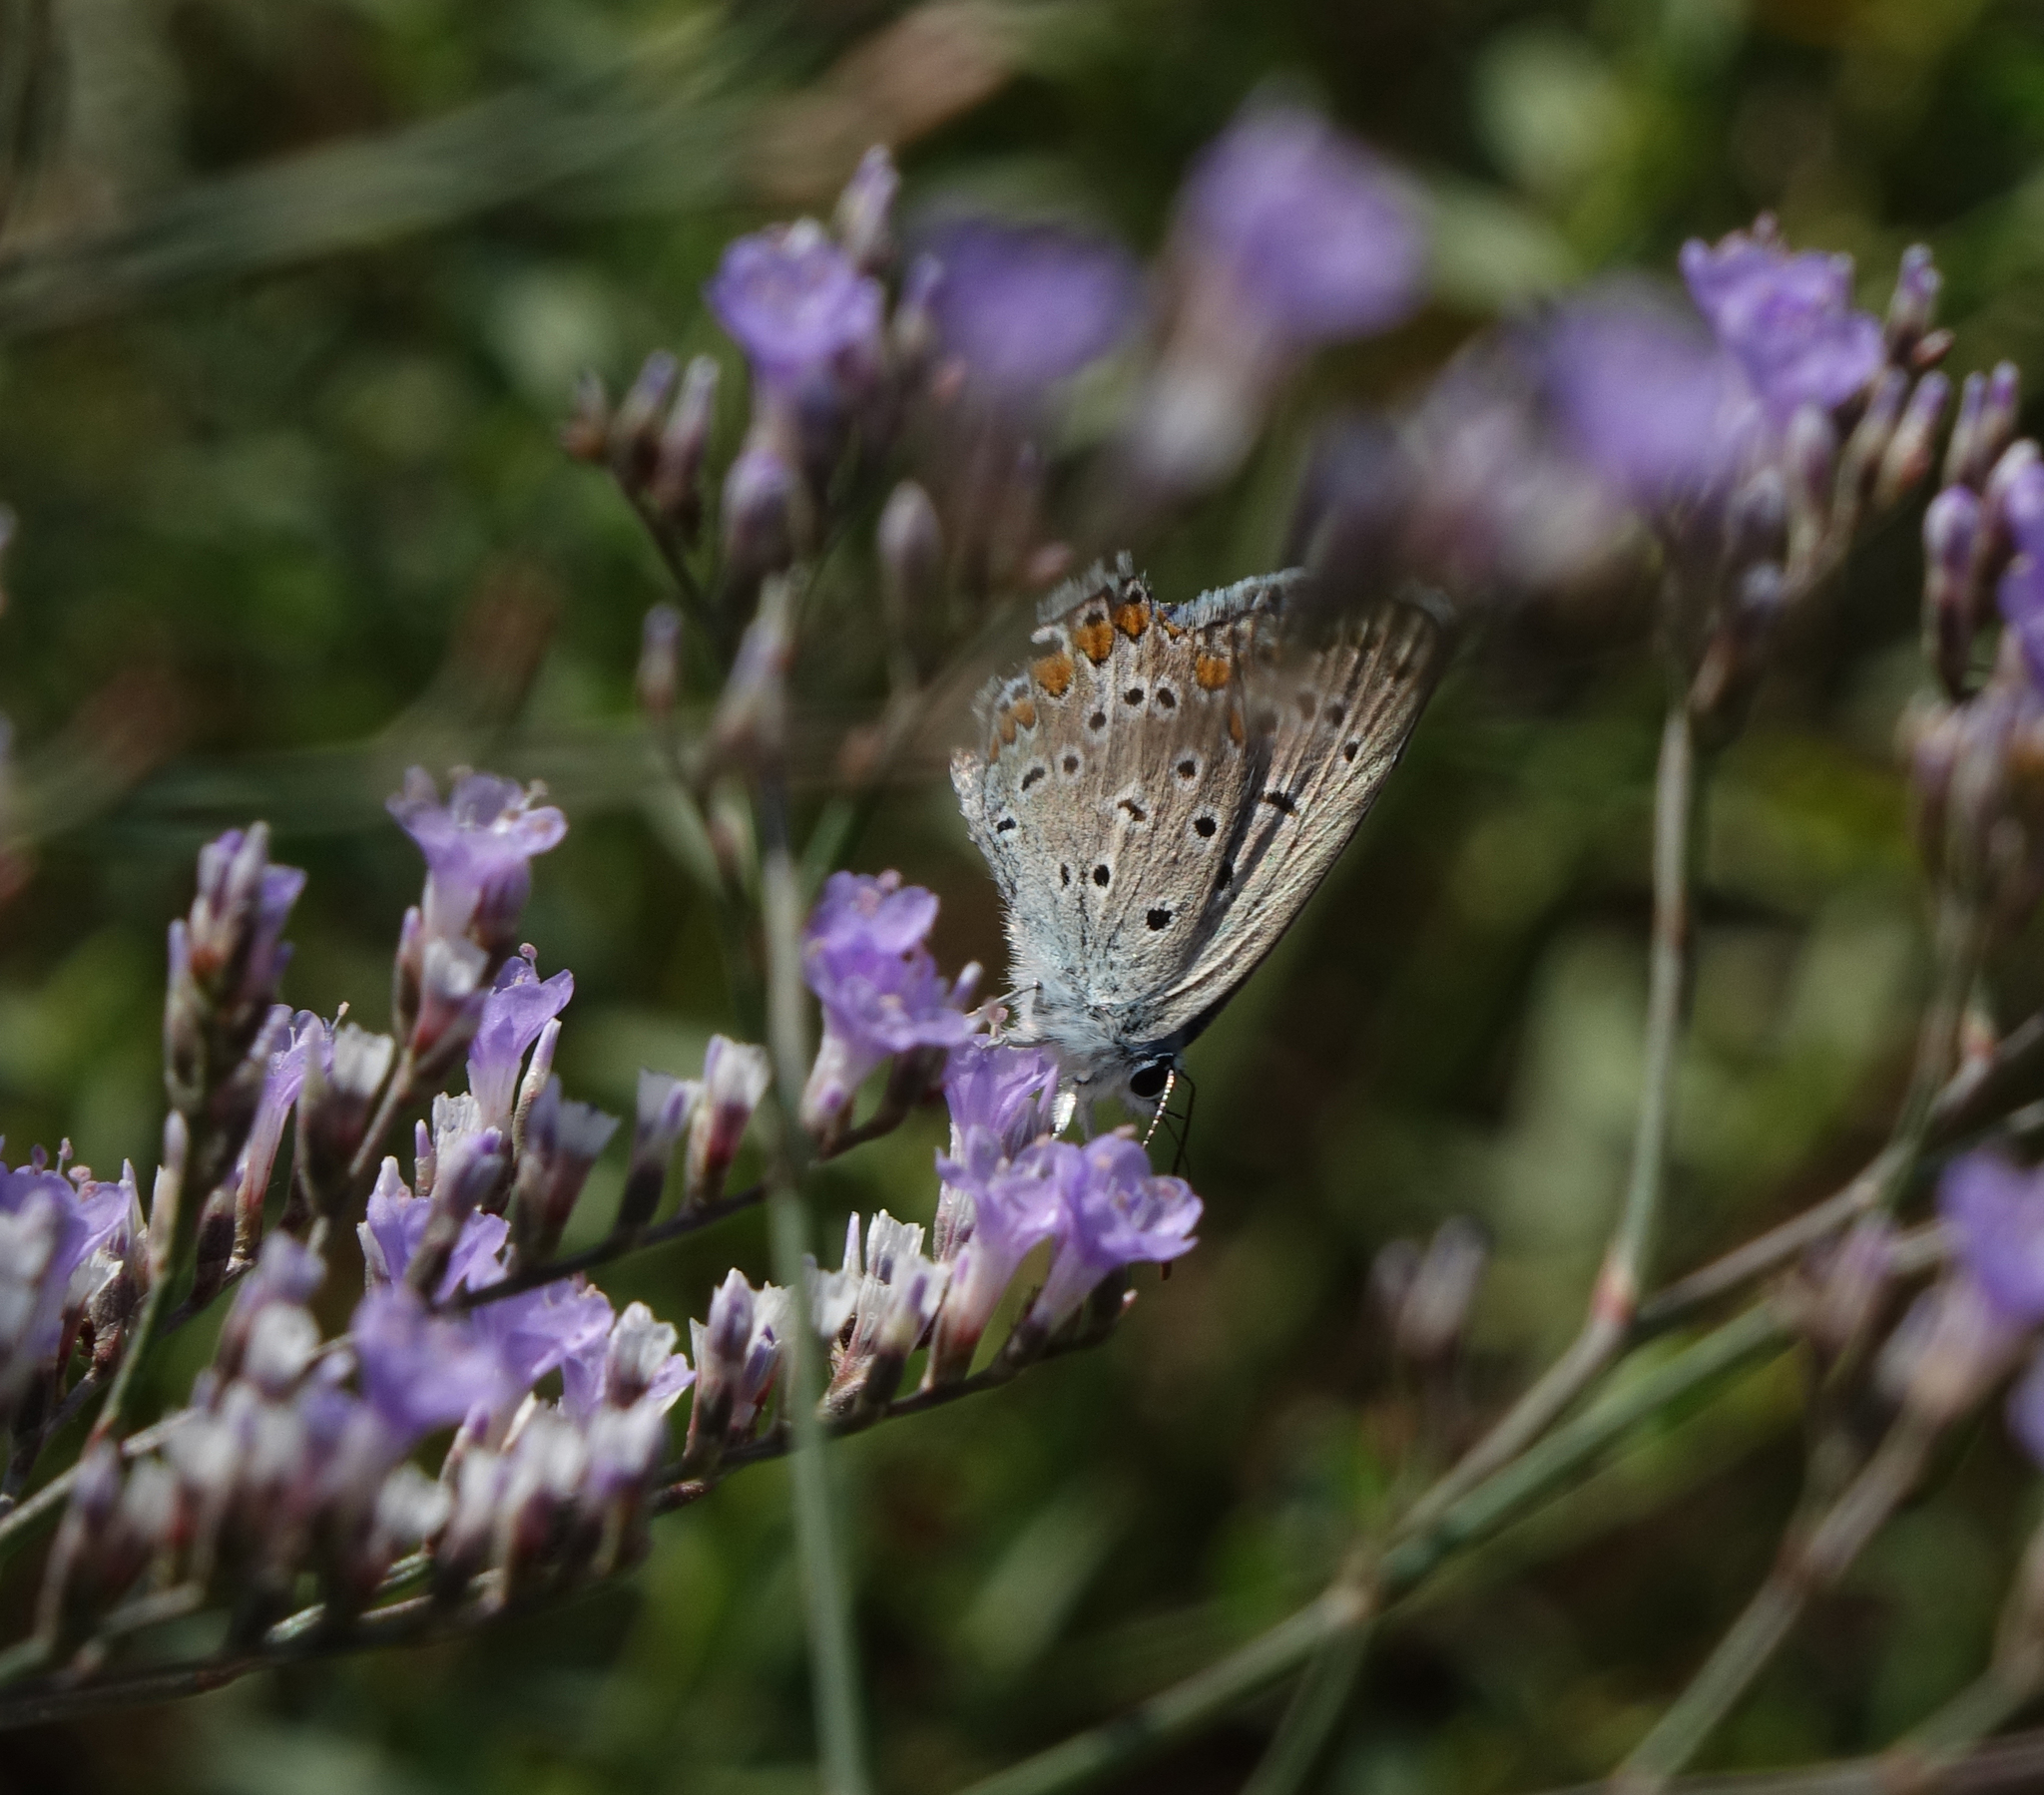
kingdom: Animalia
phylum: Arthropoda
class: Insecta
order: Lepidoptera
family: Lycaenidae
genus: Polyommatus
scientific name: Polyommatus icarus
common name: Common blue
